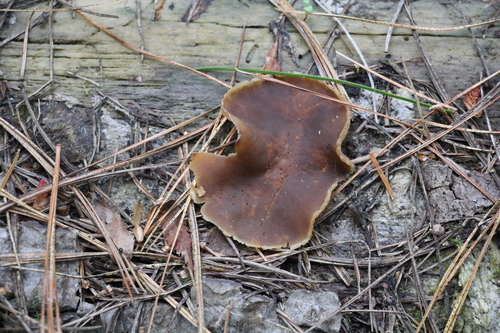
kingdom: Fungi
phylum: Ascomycota
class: Pezizomycetes
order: Pezizales
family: Pezizaceae
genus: Peziza
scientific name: Peziza varia
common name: Layered cup
